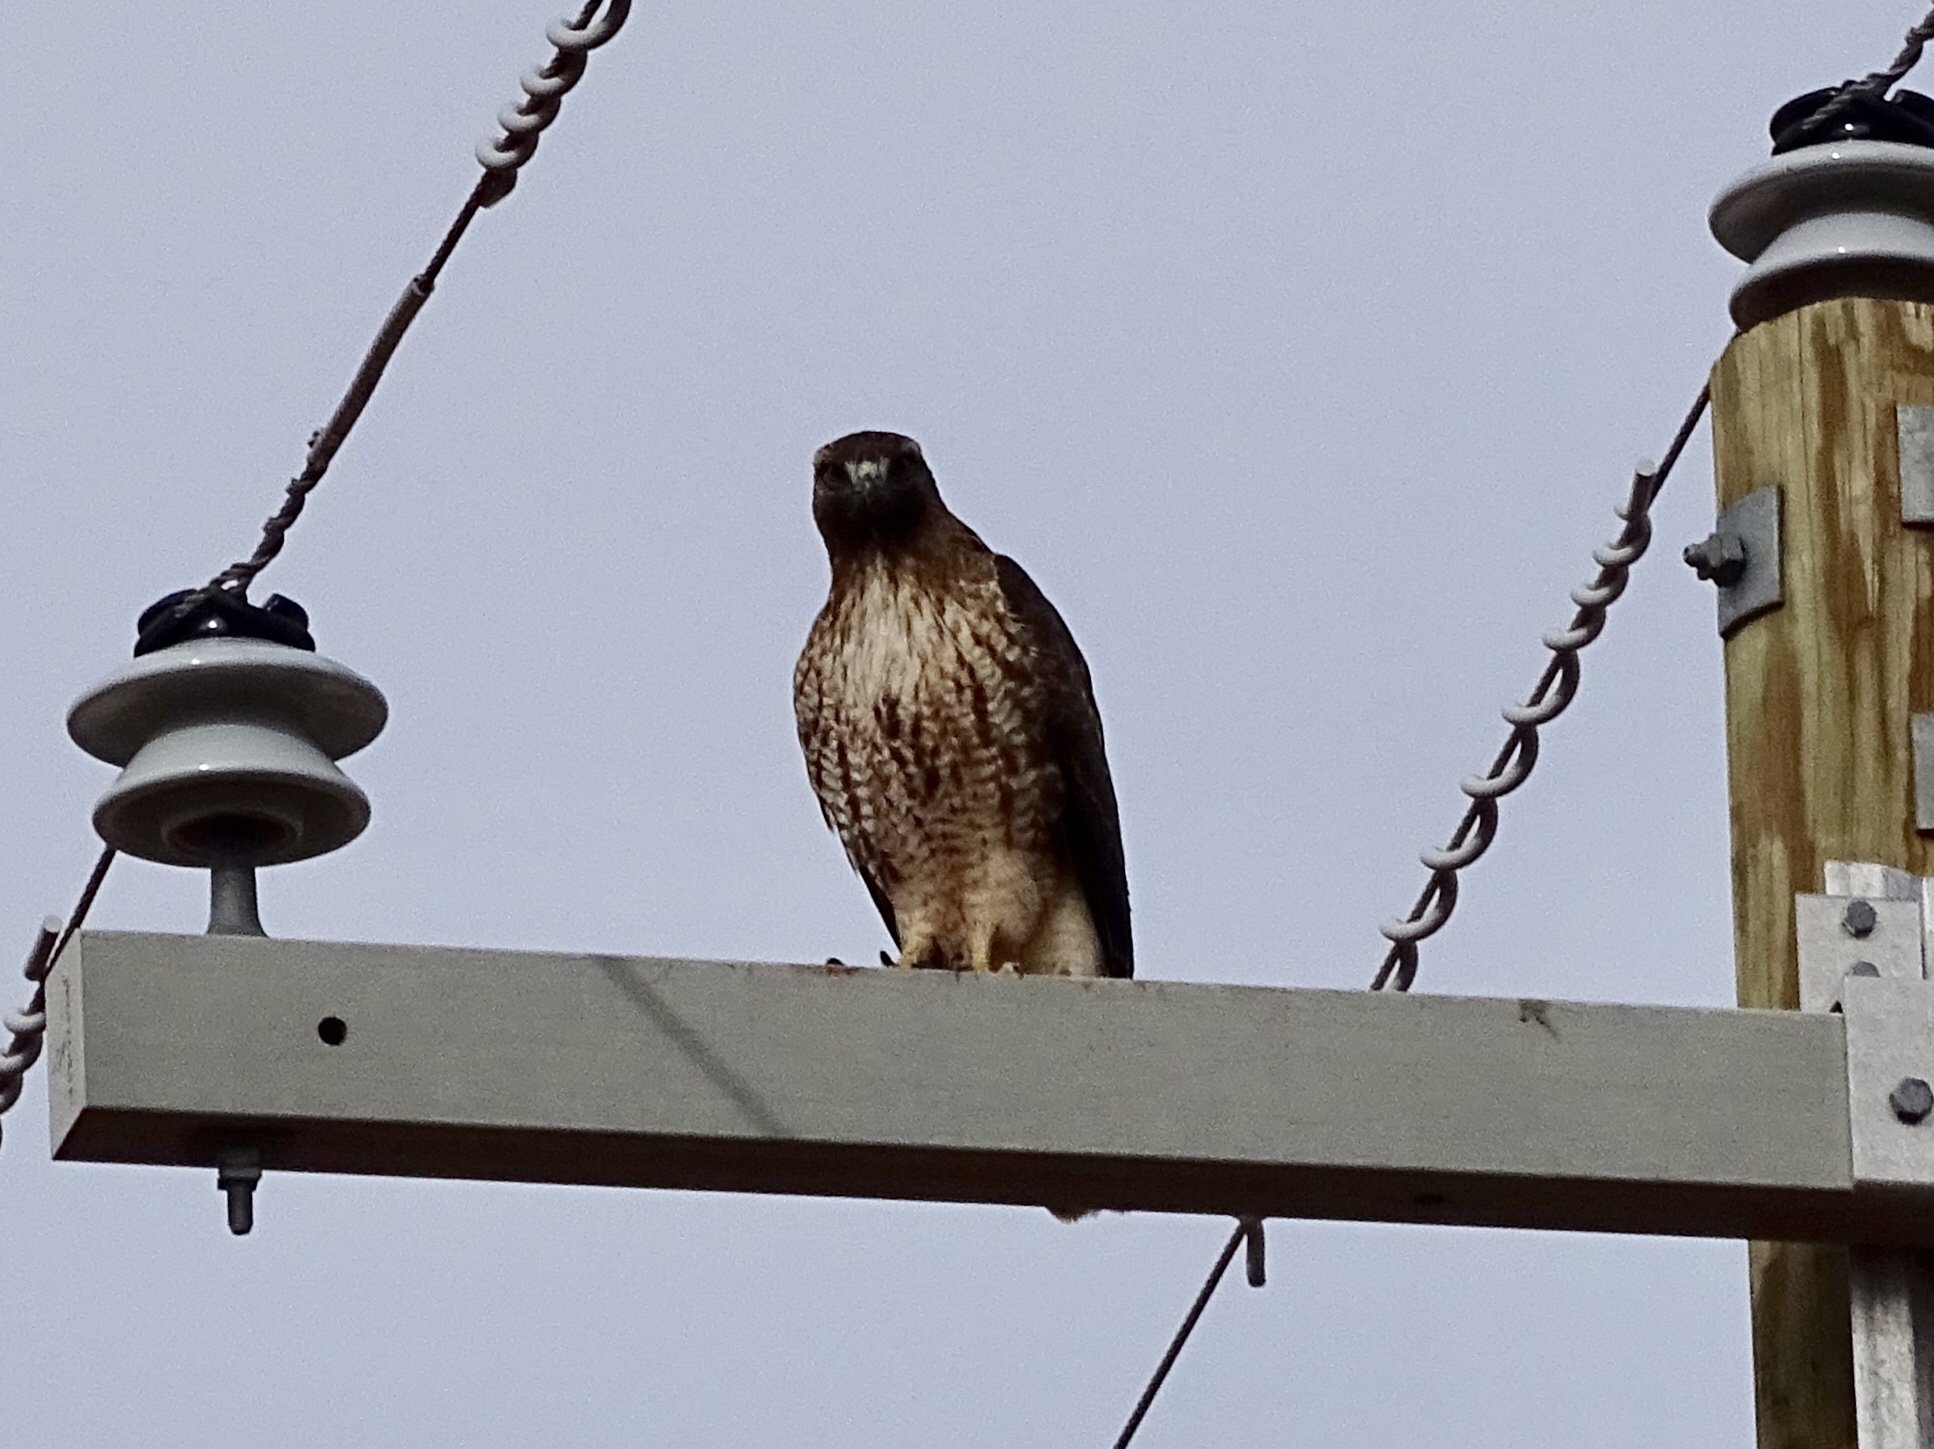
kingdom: Animalia
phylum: Chordata
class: Aves
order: Accipitriformes
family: Accipitridae
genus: Buteo
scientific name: Buteo jamaicensis
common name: Red-tailed hawk
